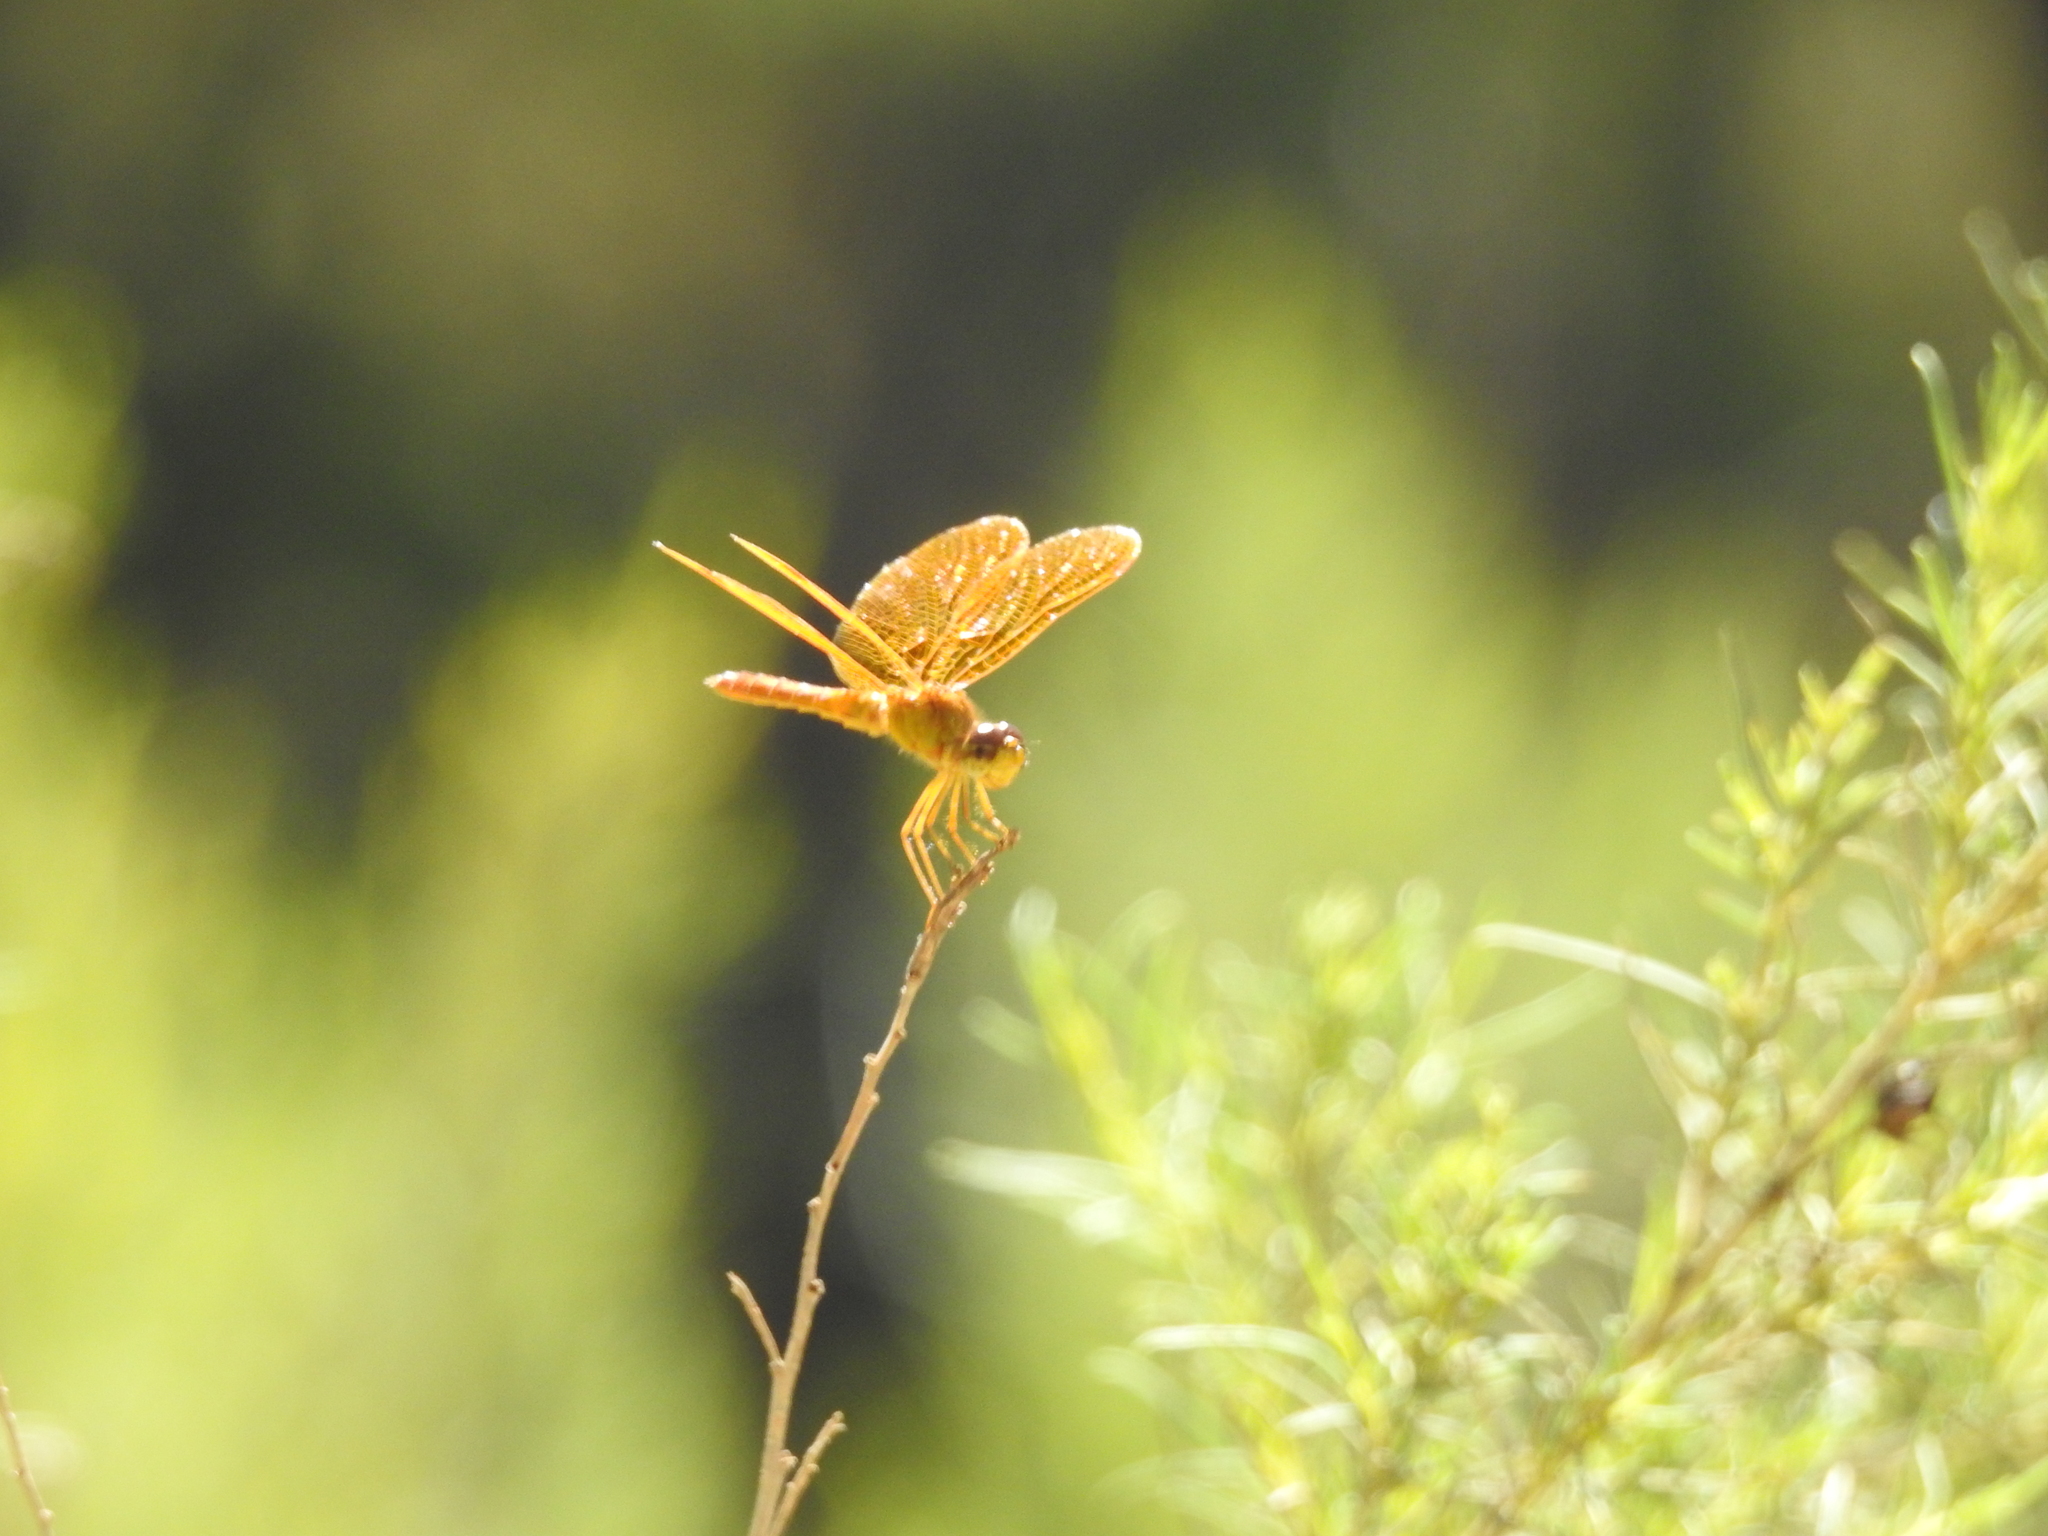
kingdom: Animalia
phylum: Arthropoda
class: Insecta
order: Odonata
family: Libellulidae
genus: Perithemis
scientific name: Perithemis intensa
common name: Mexican amberwing
